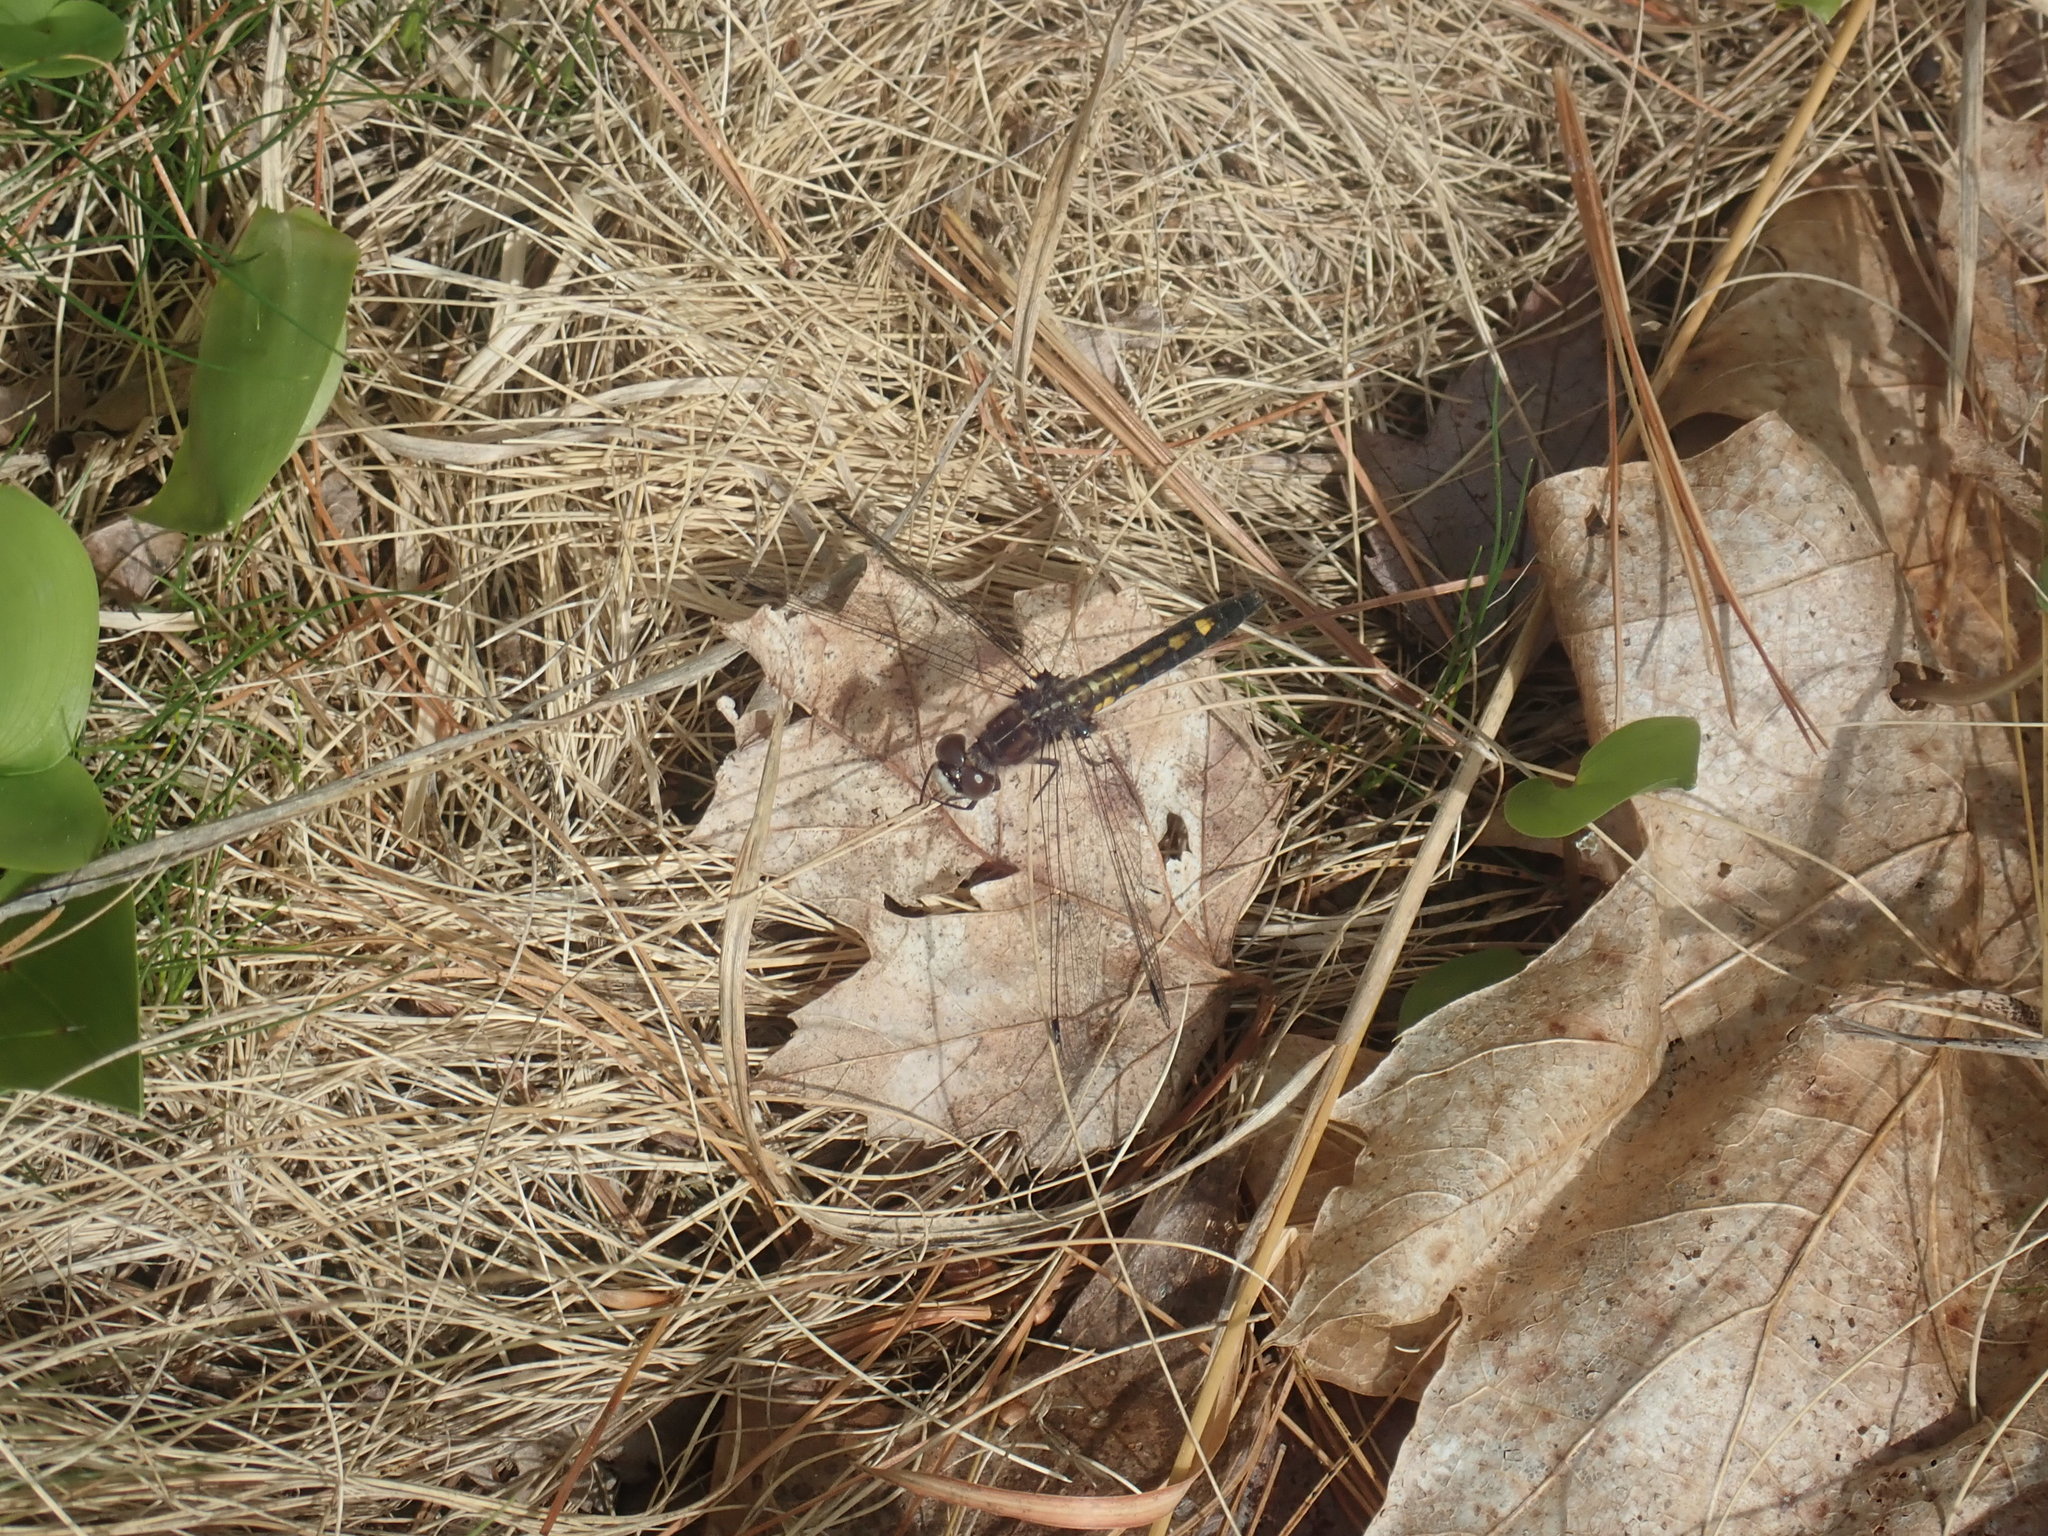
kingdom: Animalia
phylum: Arthropoda
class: Insecta
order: Odonata
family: Libellulidae
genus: Leucorrhinia
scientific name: Leucorrhinia intacta
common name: Dot-tailed whiteface
